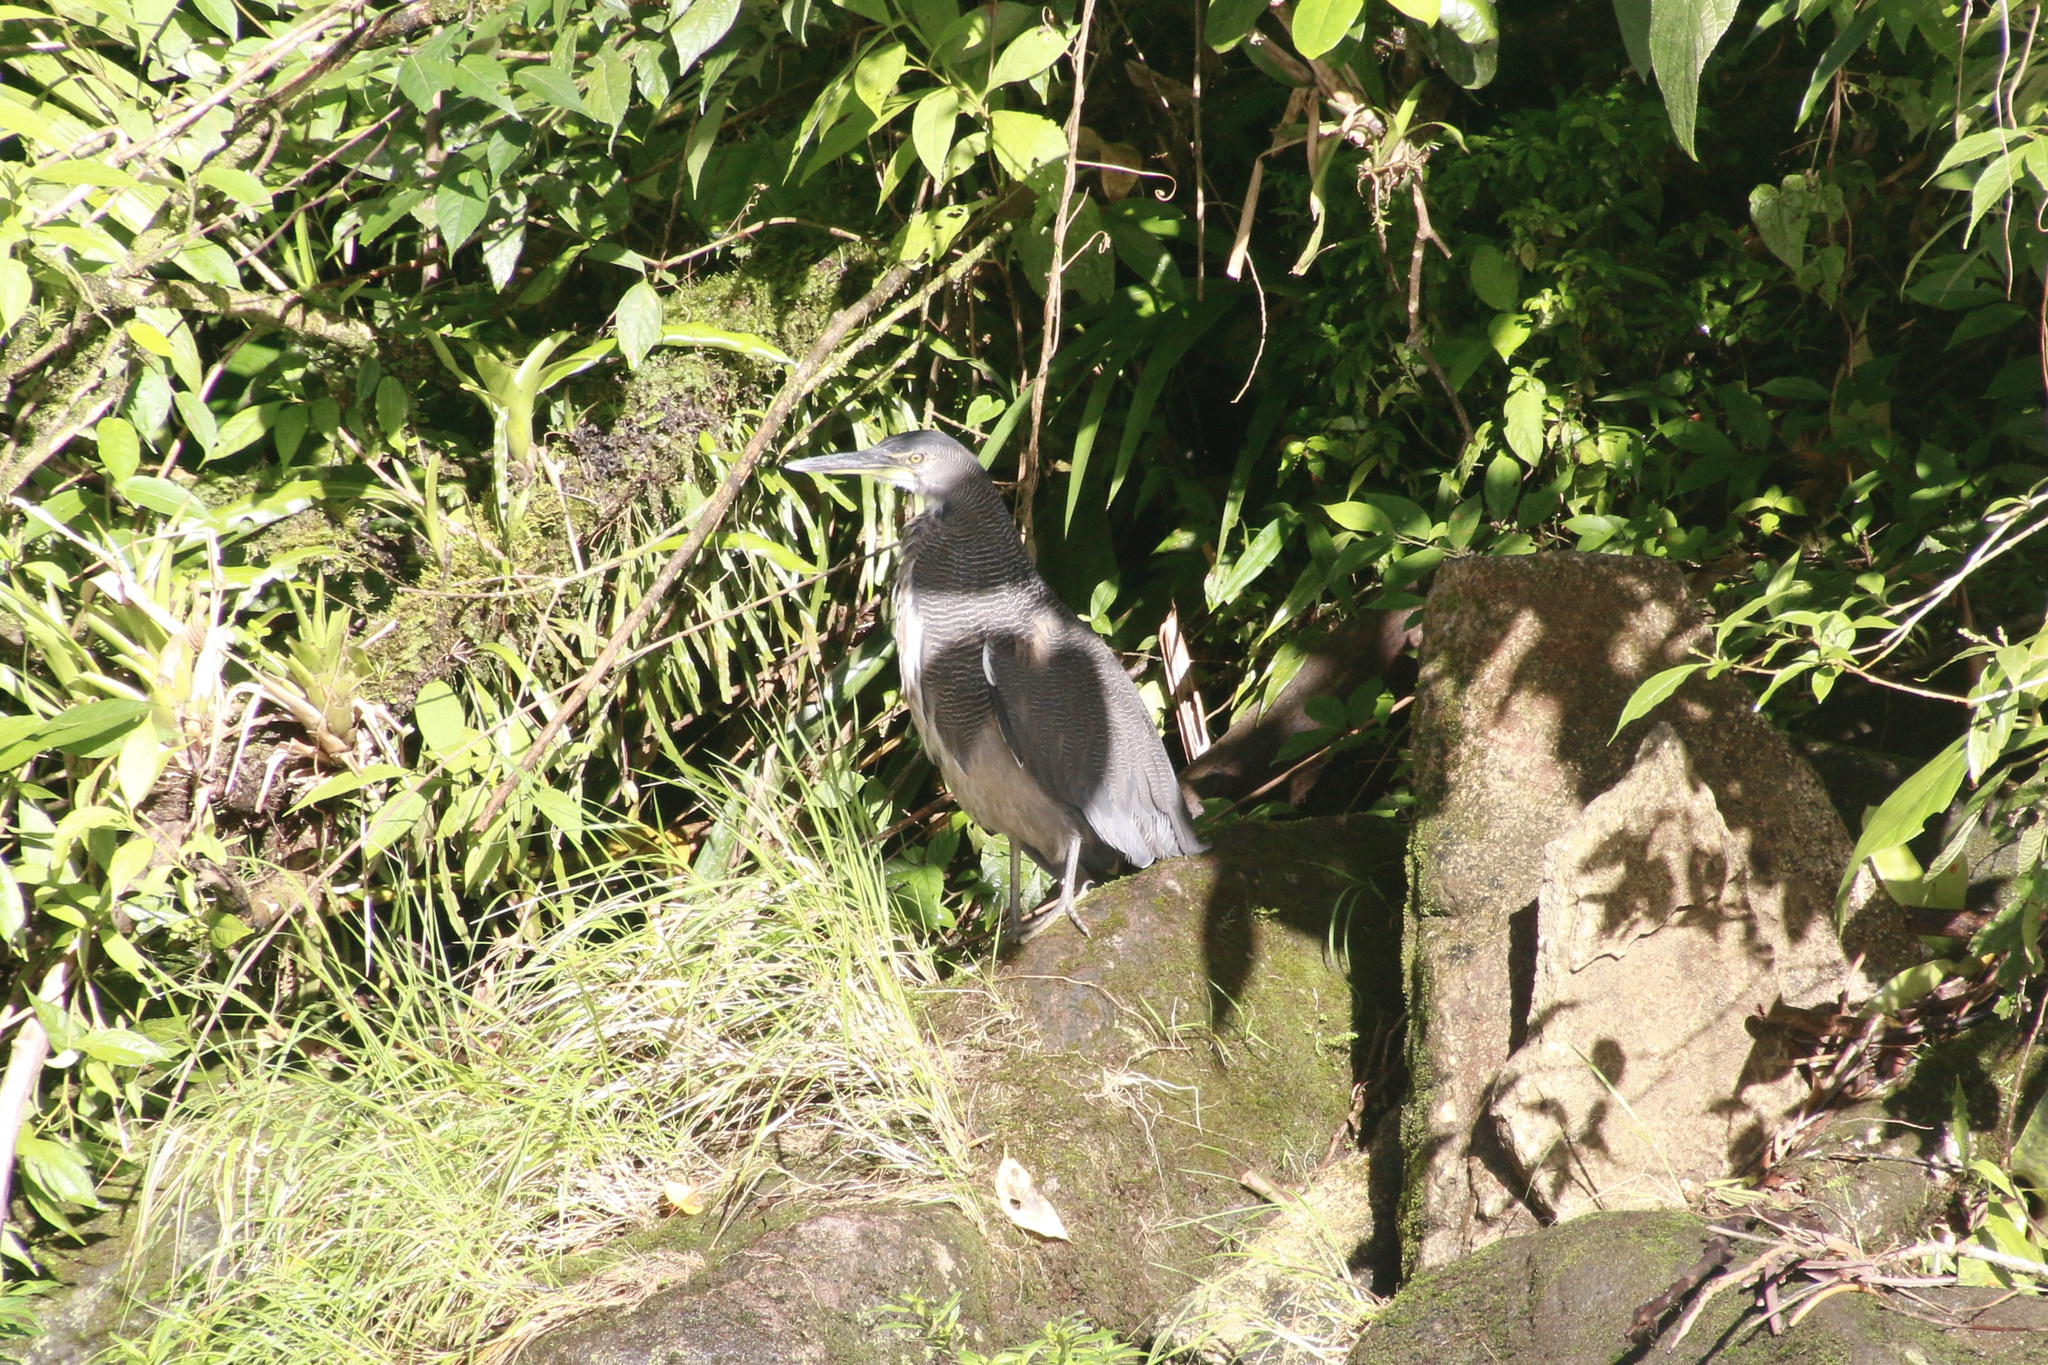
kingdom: Animalia
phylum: Chordata
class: Aves
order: Pelecaniformes
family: Ardeidae
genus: Tigrisoma
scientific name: Tigrisoma fasciatum
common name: Fasciated tiger-heron
